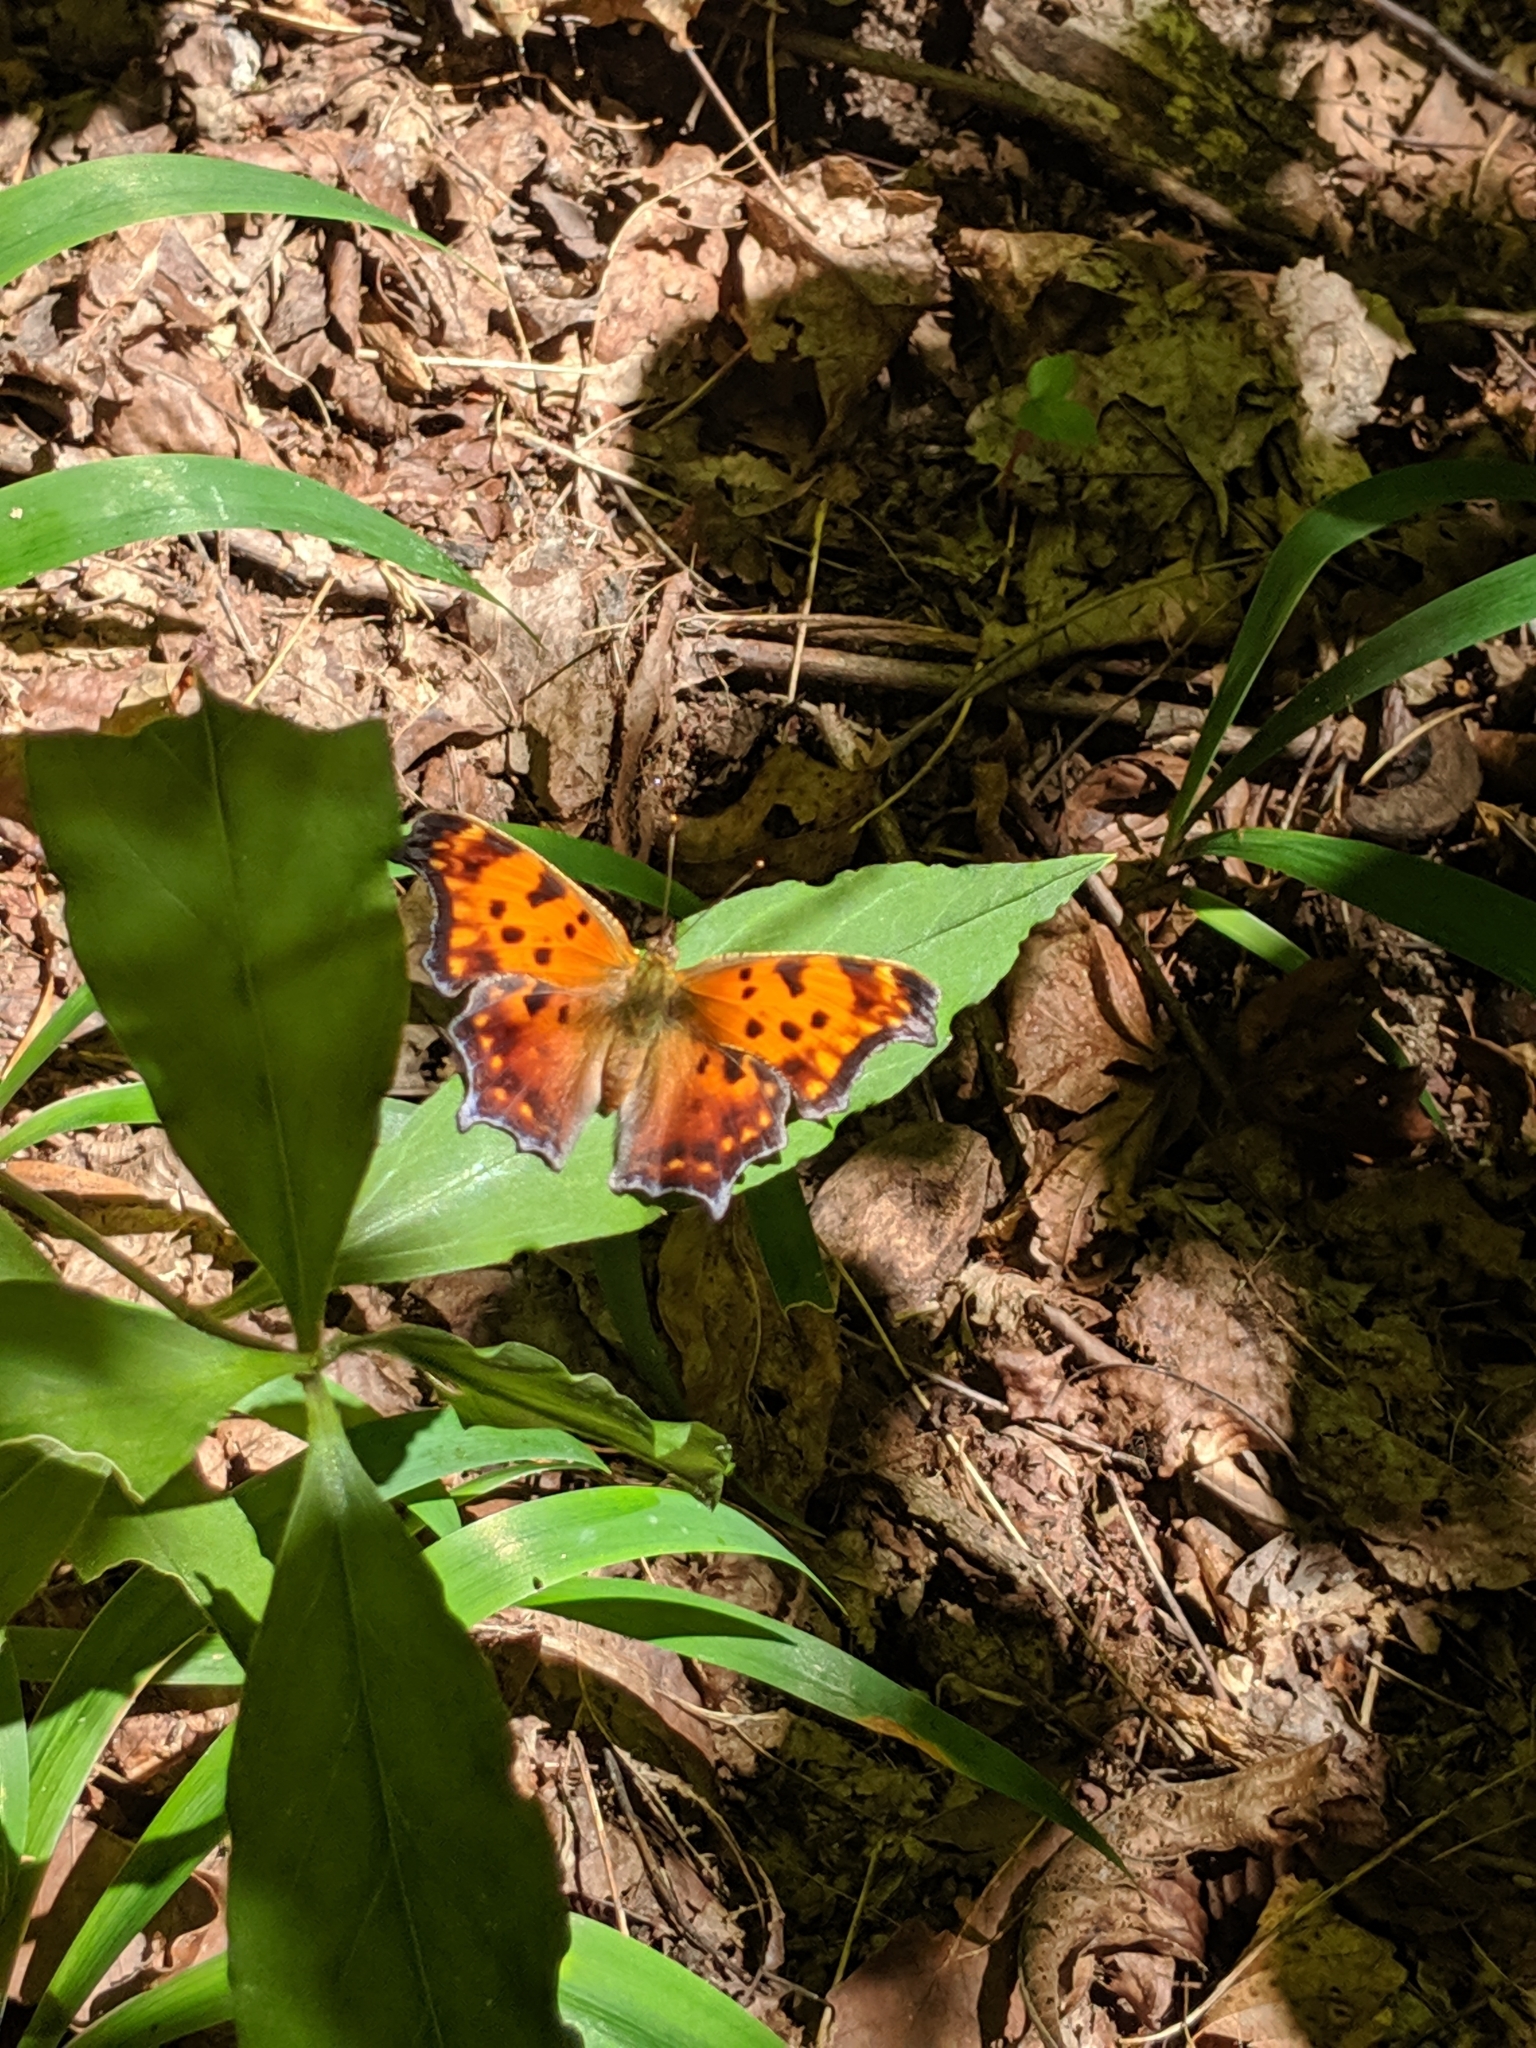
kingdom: Animalia
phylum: Arthropoda
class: Insecta
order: Lepidoptera
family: Nymphalidae
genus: Polygonia
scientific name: Polygonia comma
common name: Eastern comma
